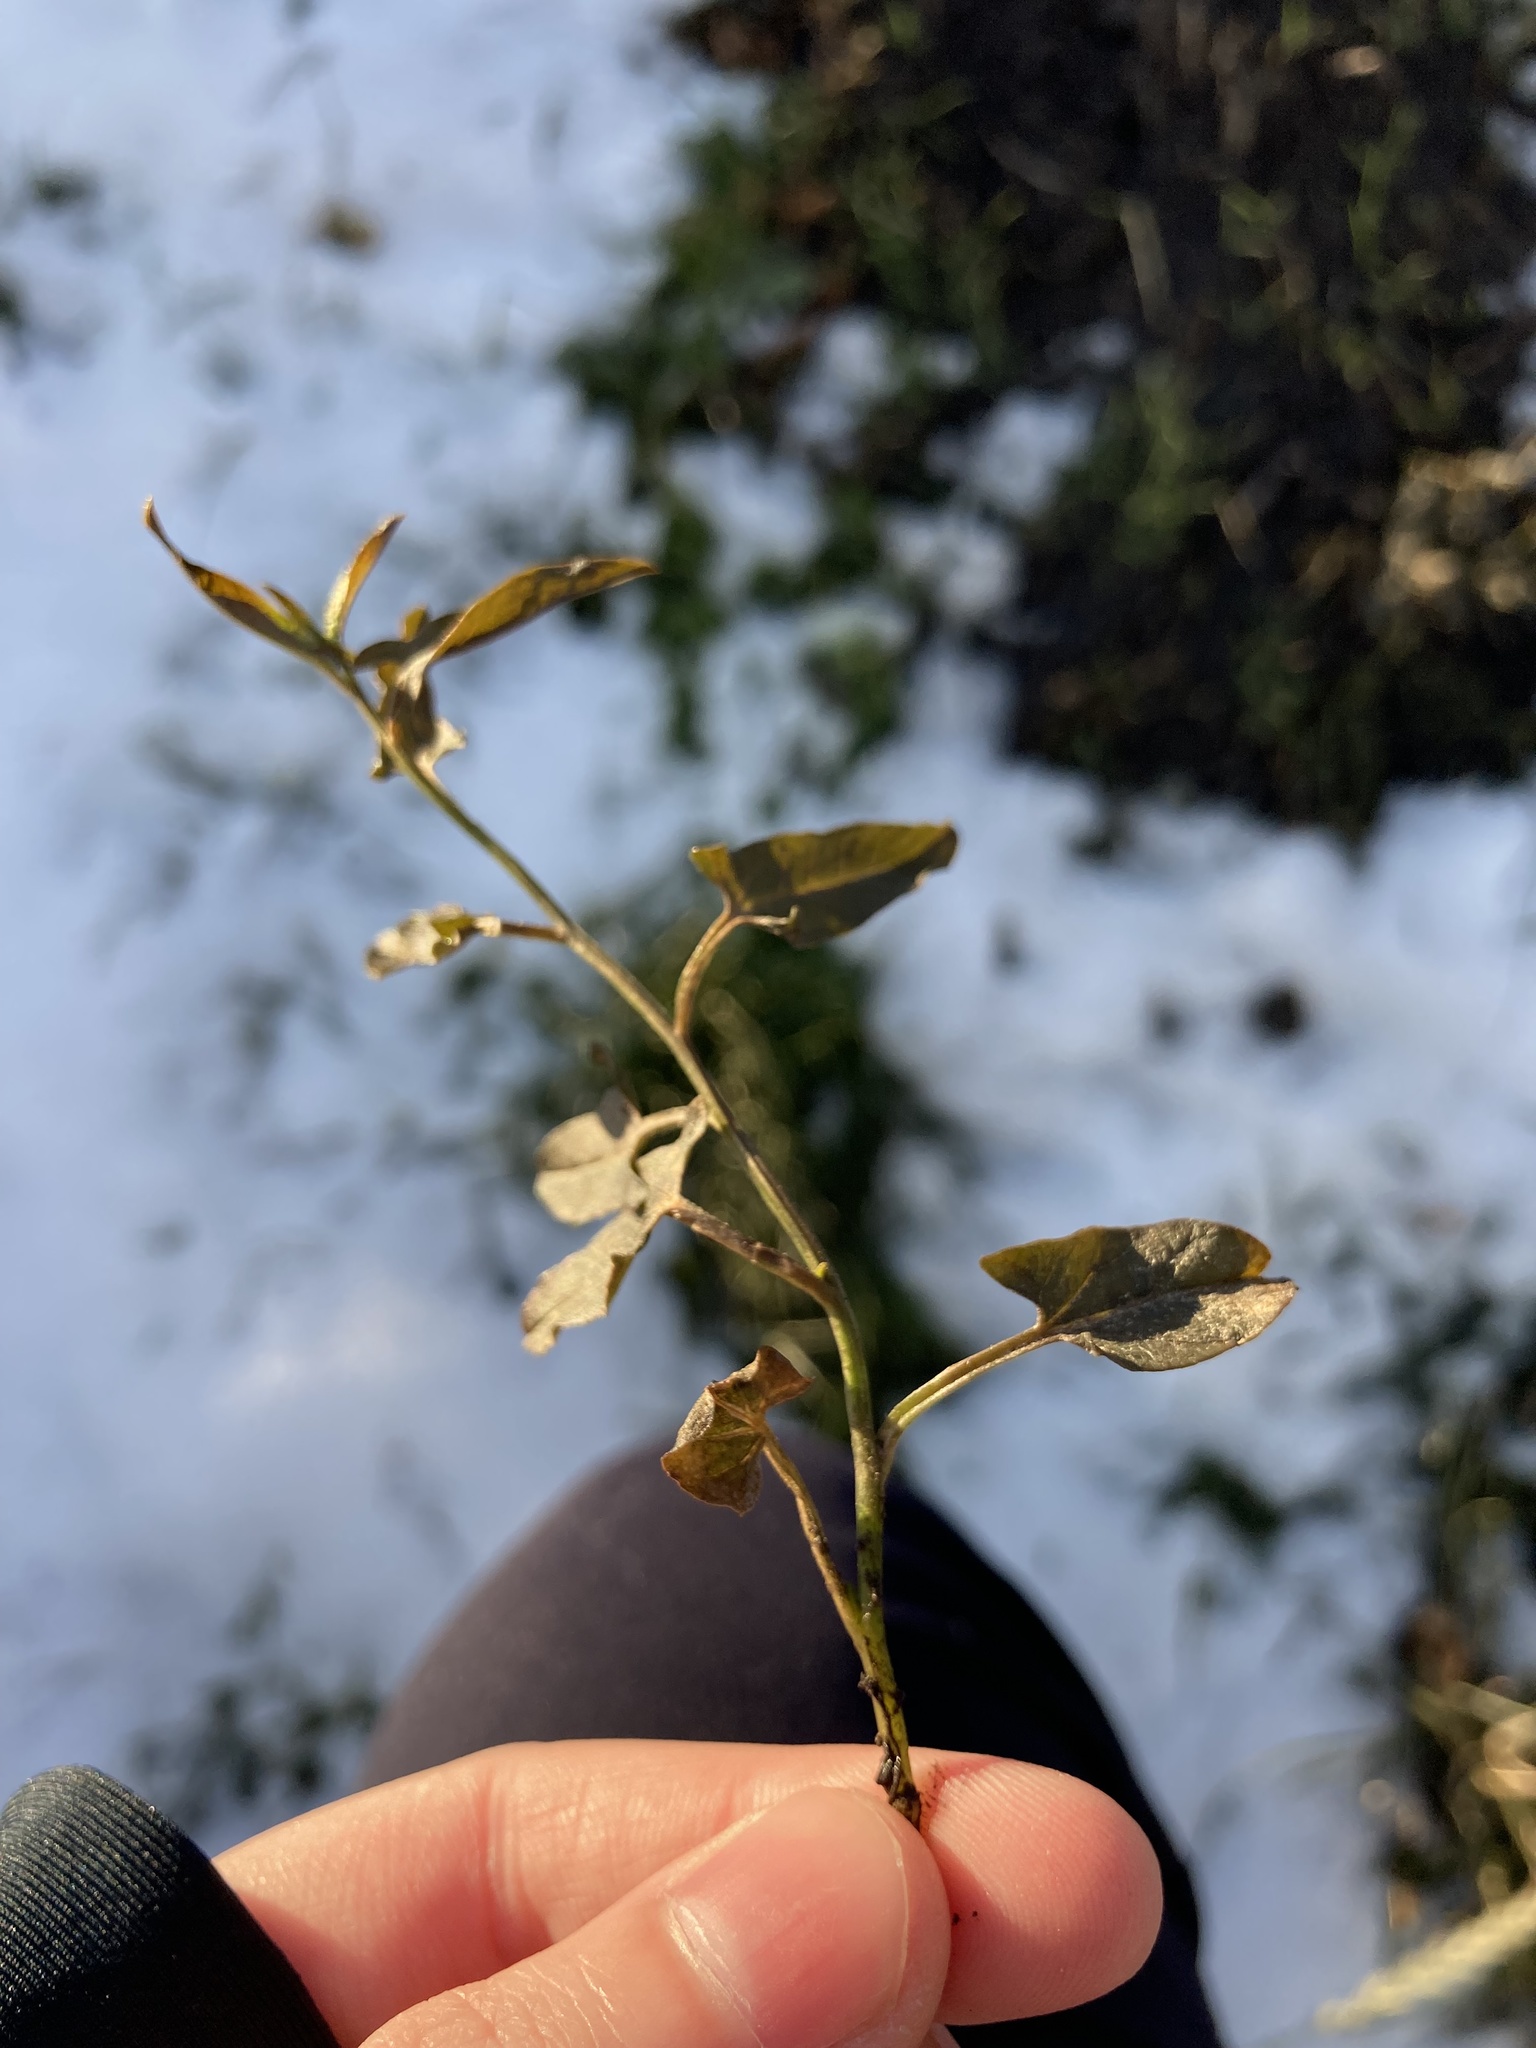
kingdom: Plantae
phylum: Tracheophyta
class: Magnoliopsida
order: Solanales
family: Convolvulaceae
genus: Convolvulus
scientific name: Convolvulus arvensis
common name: Field bindweed
